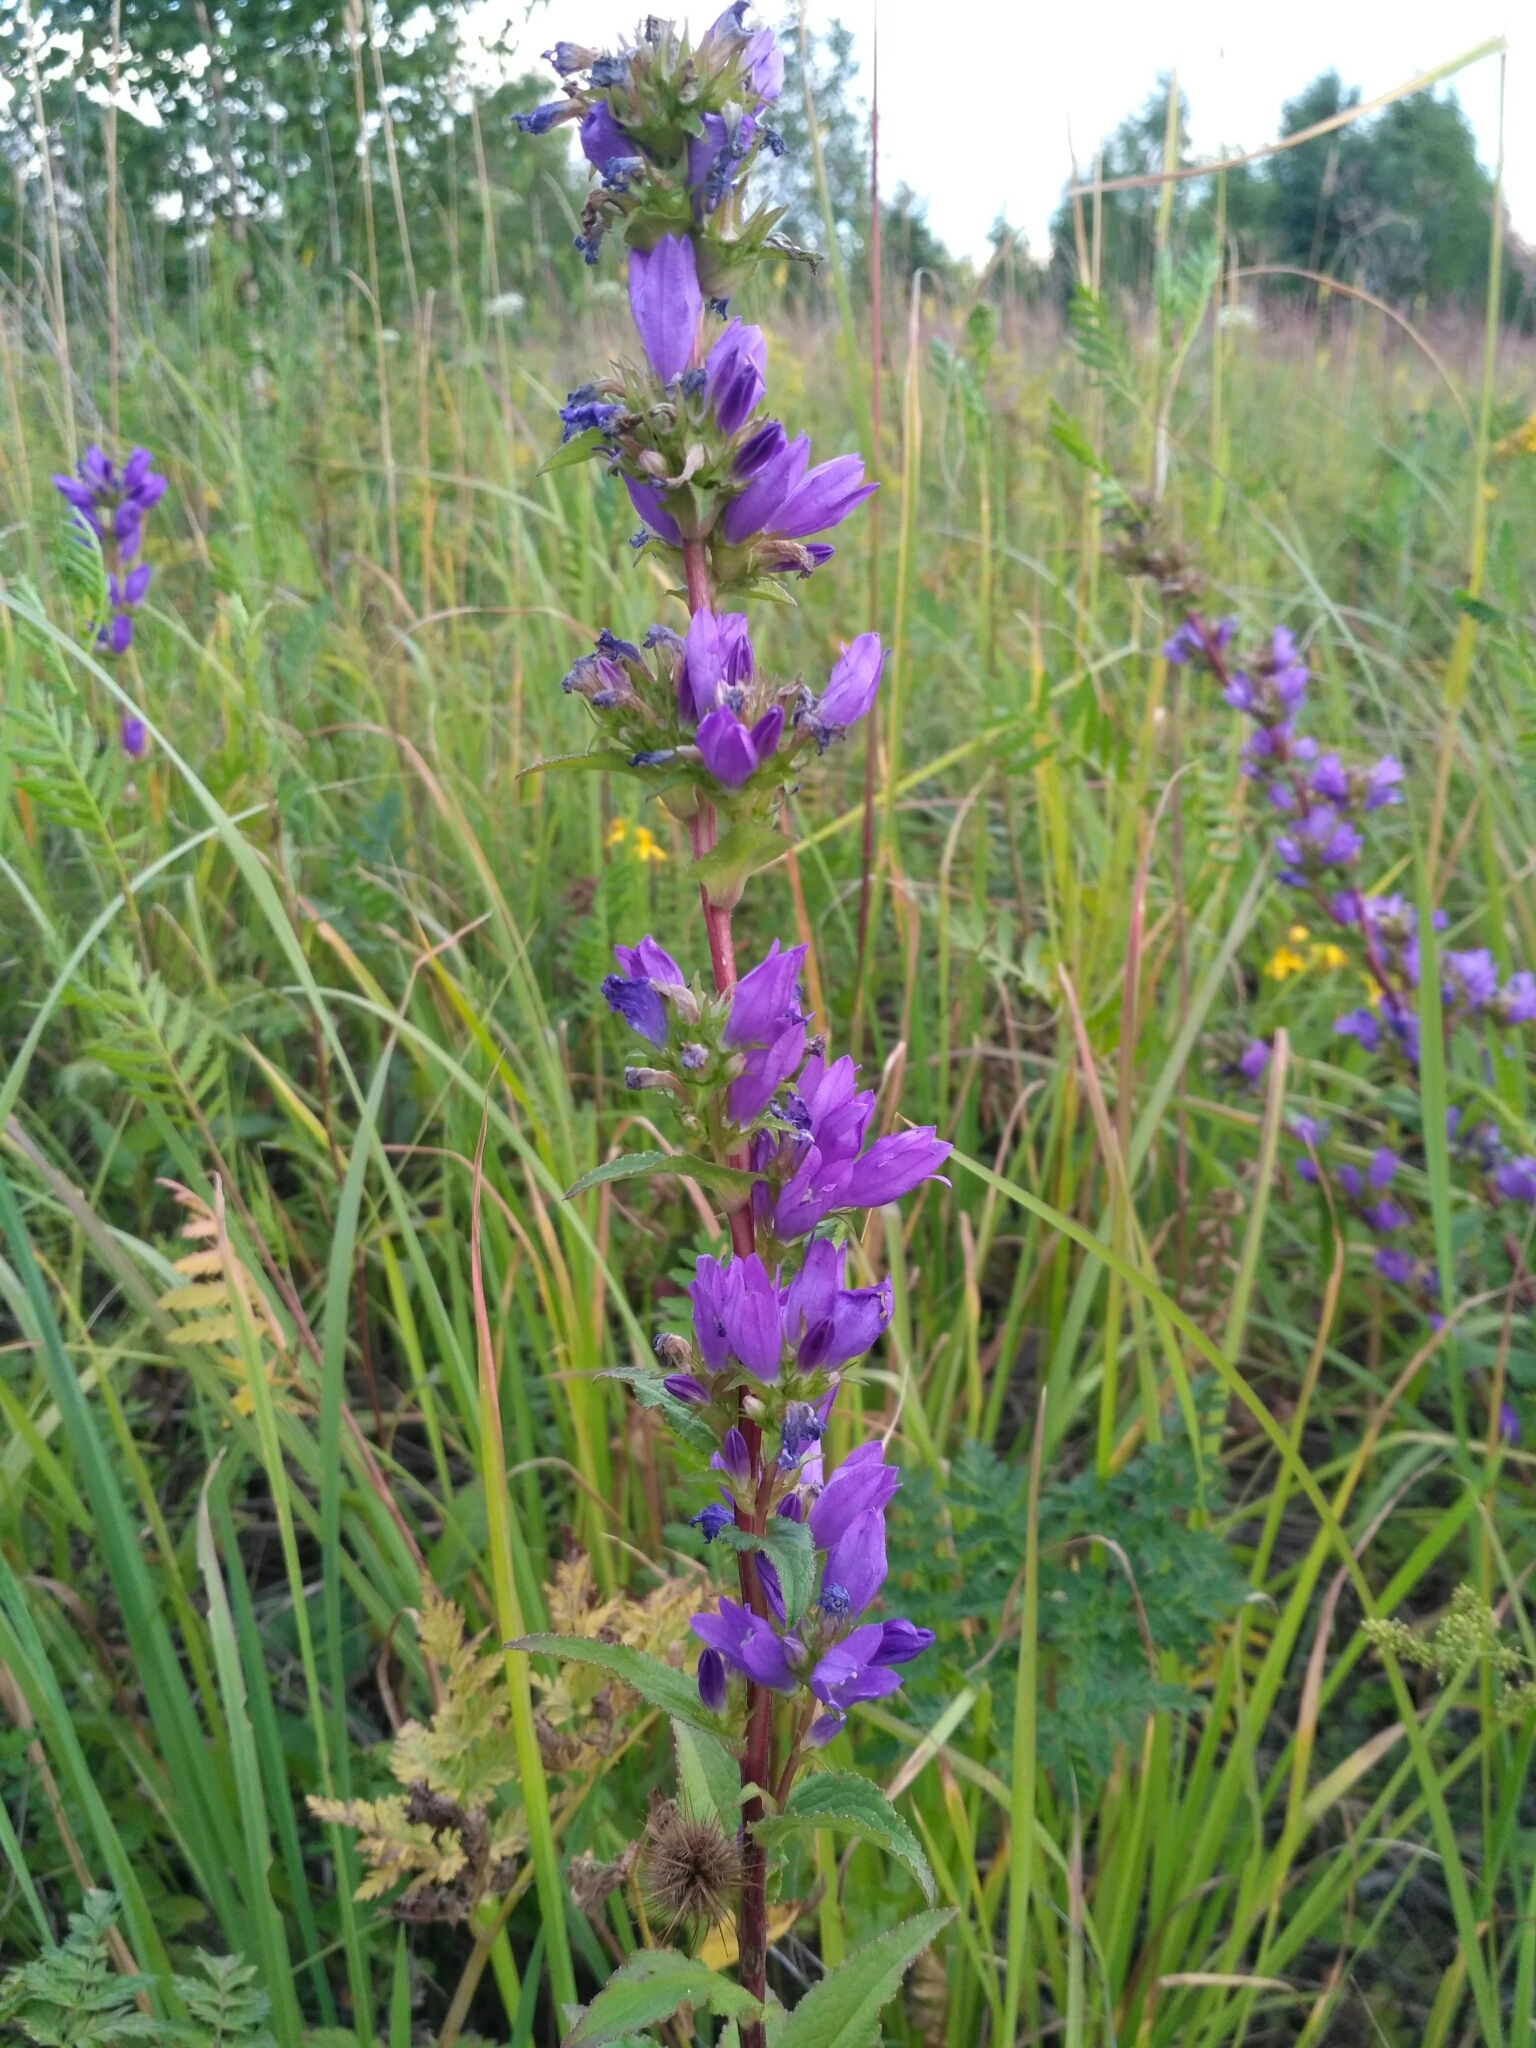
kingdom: Plantae
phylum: Tracheophyta
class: Magnoliopsida
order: Asterales
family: Campanulaceae
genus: Campanula
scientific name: Campanula glomerata
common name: Clustered bellflower
